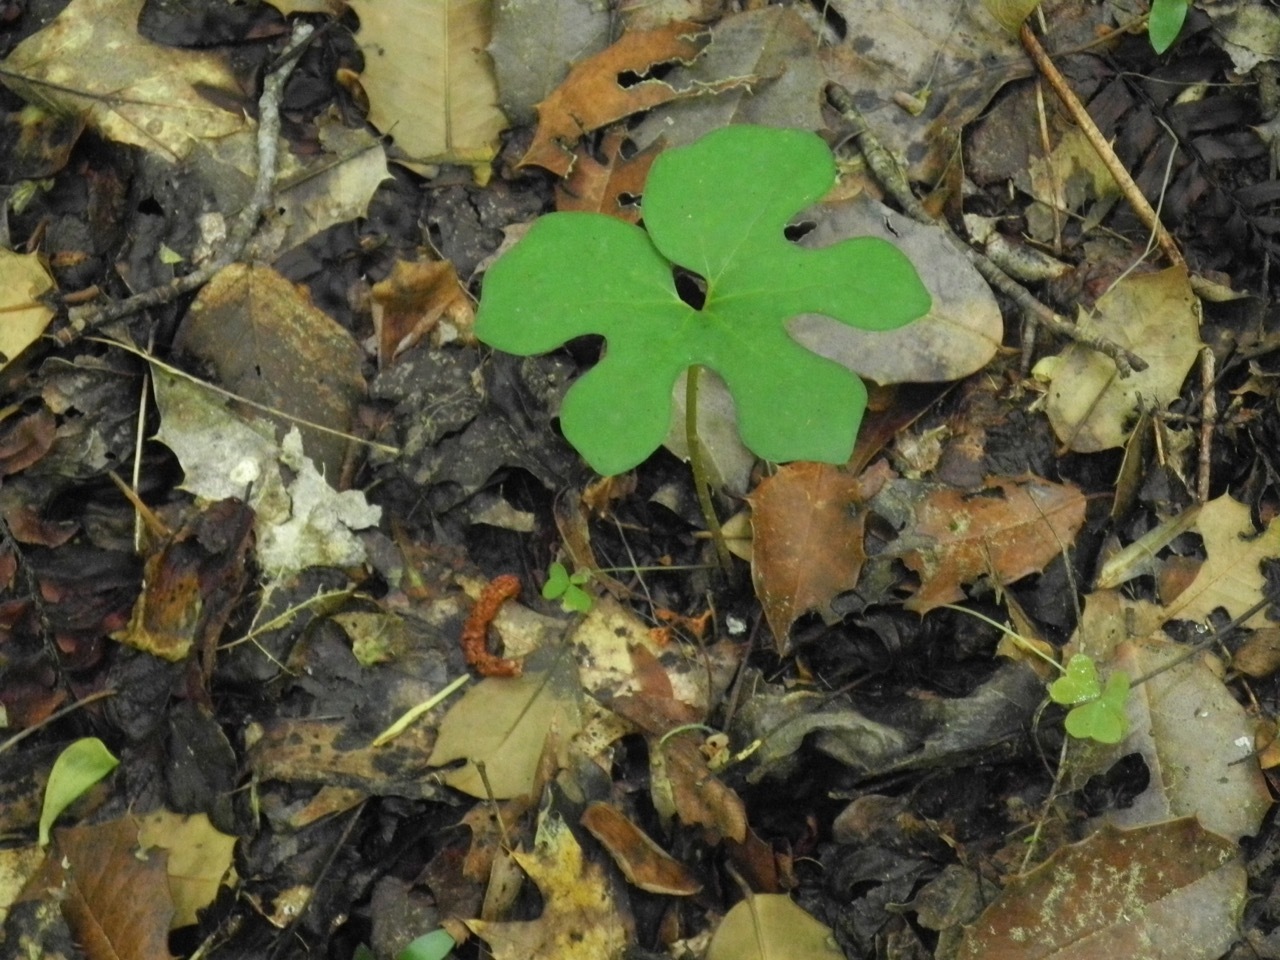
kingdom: Plantae
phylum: Tracheophyta
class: Magnoliopsida
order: Ranunculales
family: Papaveraceae
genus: Sanguinaria
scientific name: Sanguinaria canadensis
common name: Bloodroot
